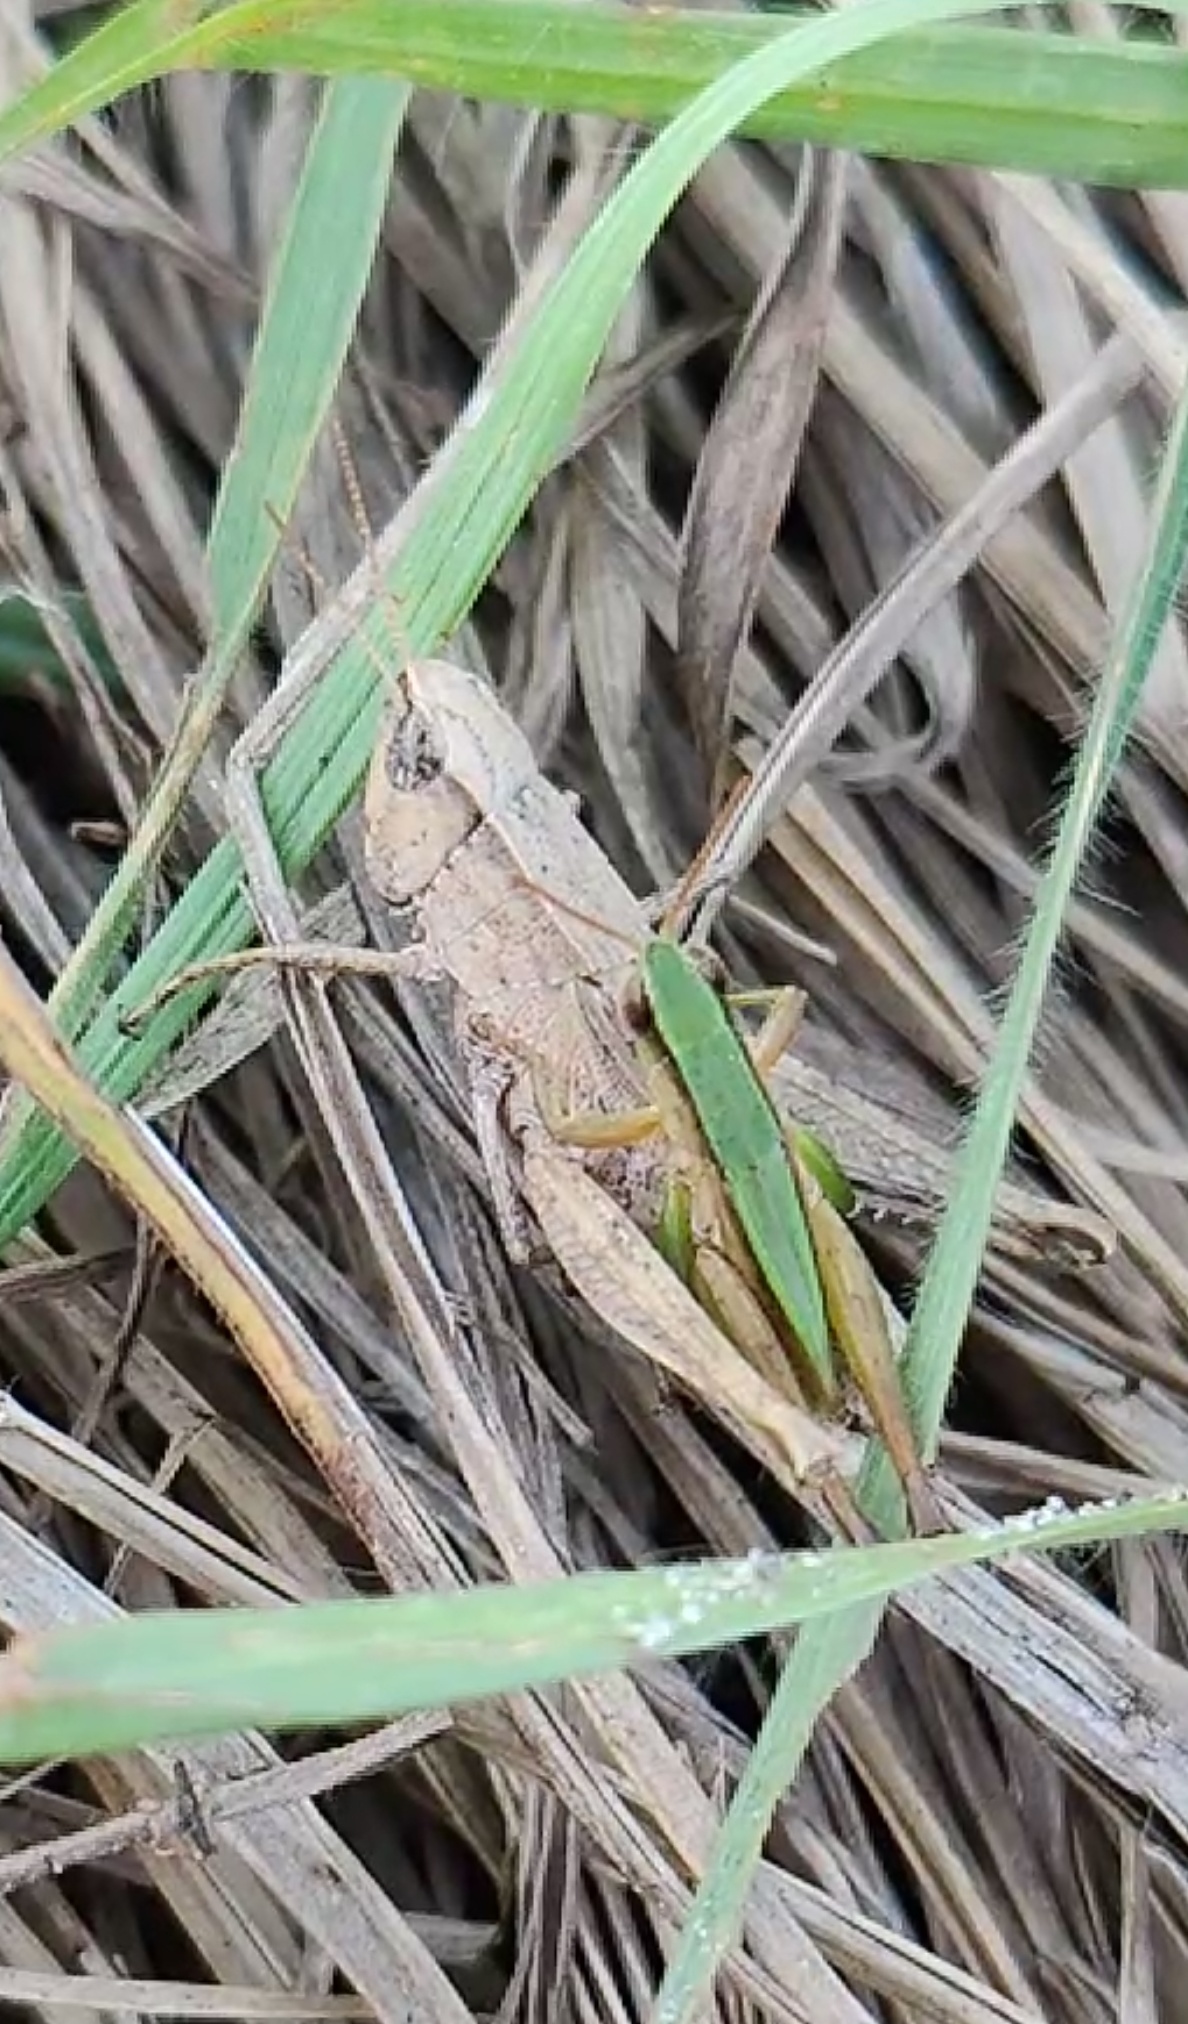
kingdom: Animalia
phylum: Arthropoda
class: Insecta
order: Orthoptera
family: Acrididae
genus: Dichromorpha
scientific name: Dichromorpha viridis
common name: Short-winged green grasshopper
